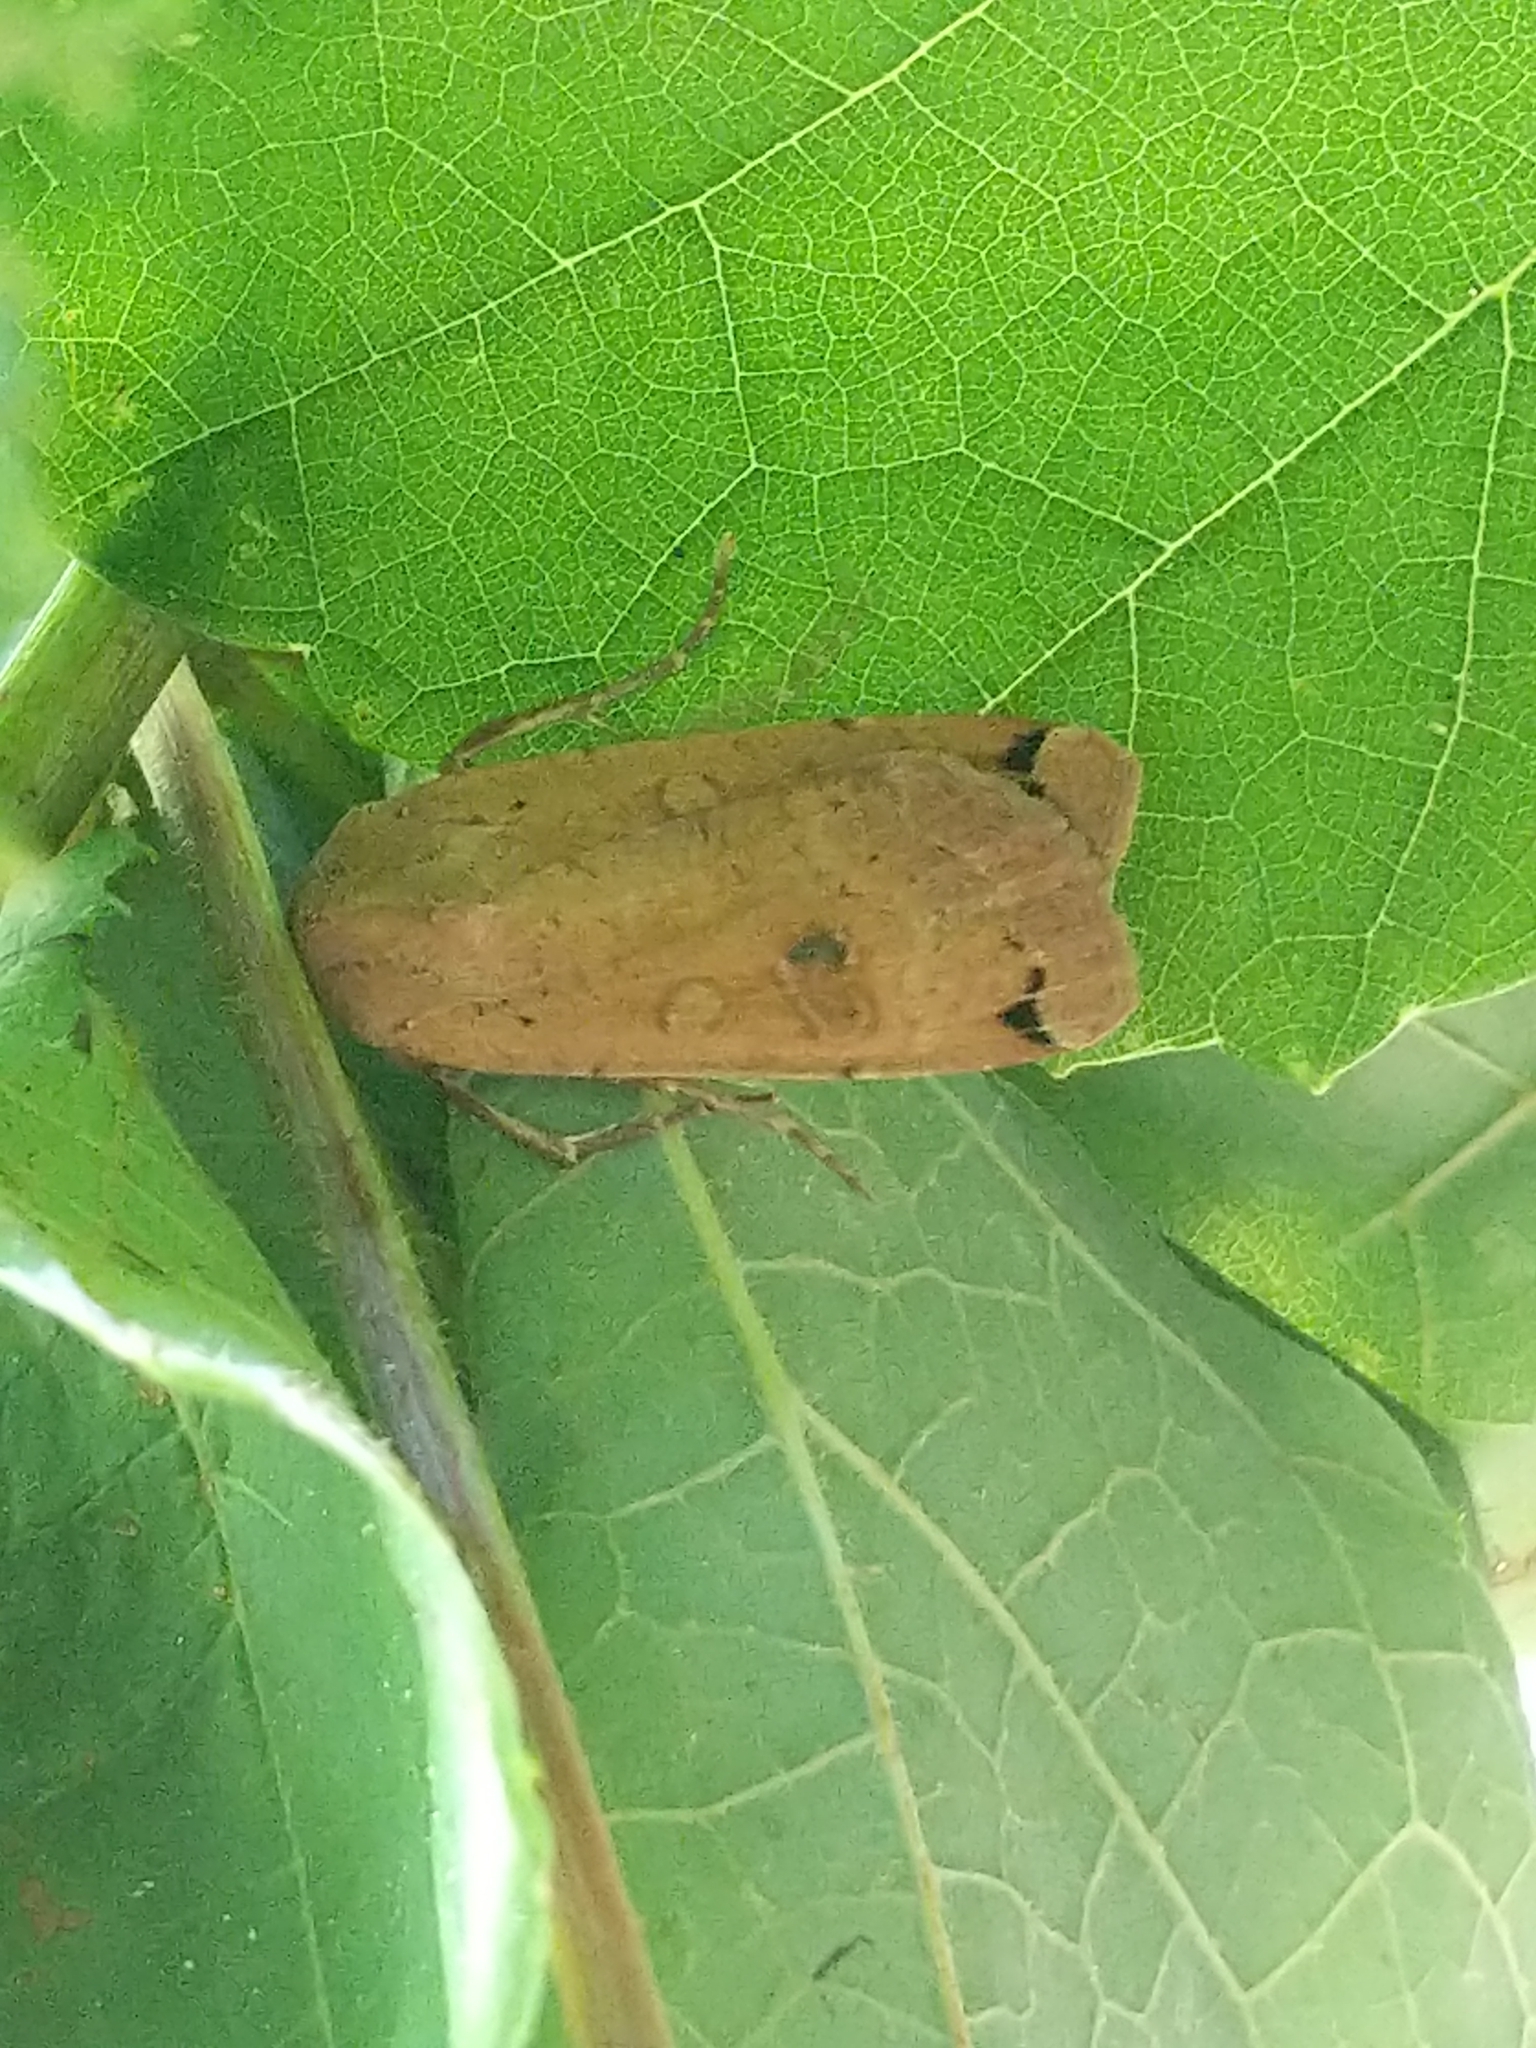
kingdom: Animalia
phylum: Arthropoda
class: Insecta
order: Lepidoptera
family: Noctuidae
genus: Noctua
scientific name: Noctua pronuba
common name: Large yellow underwing
